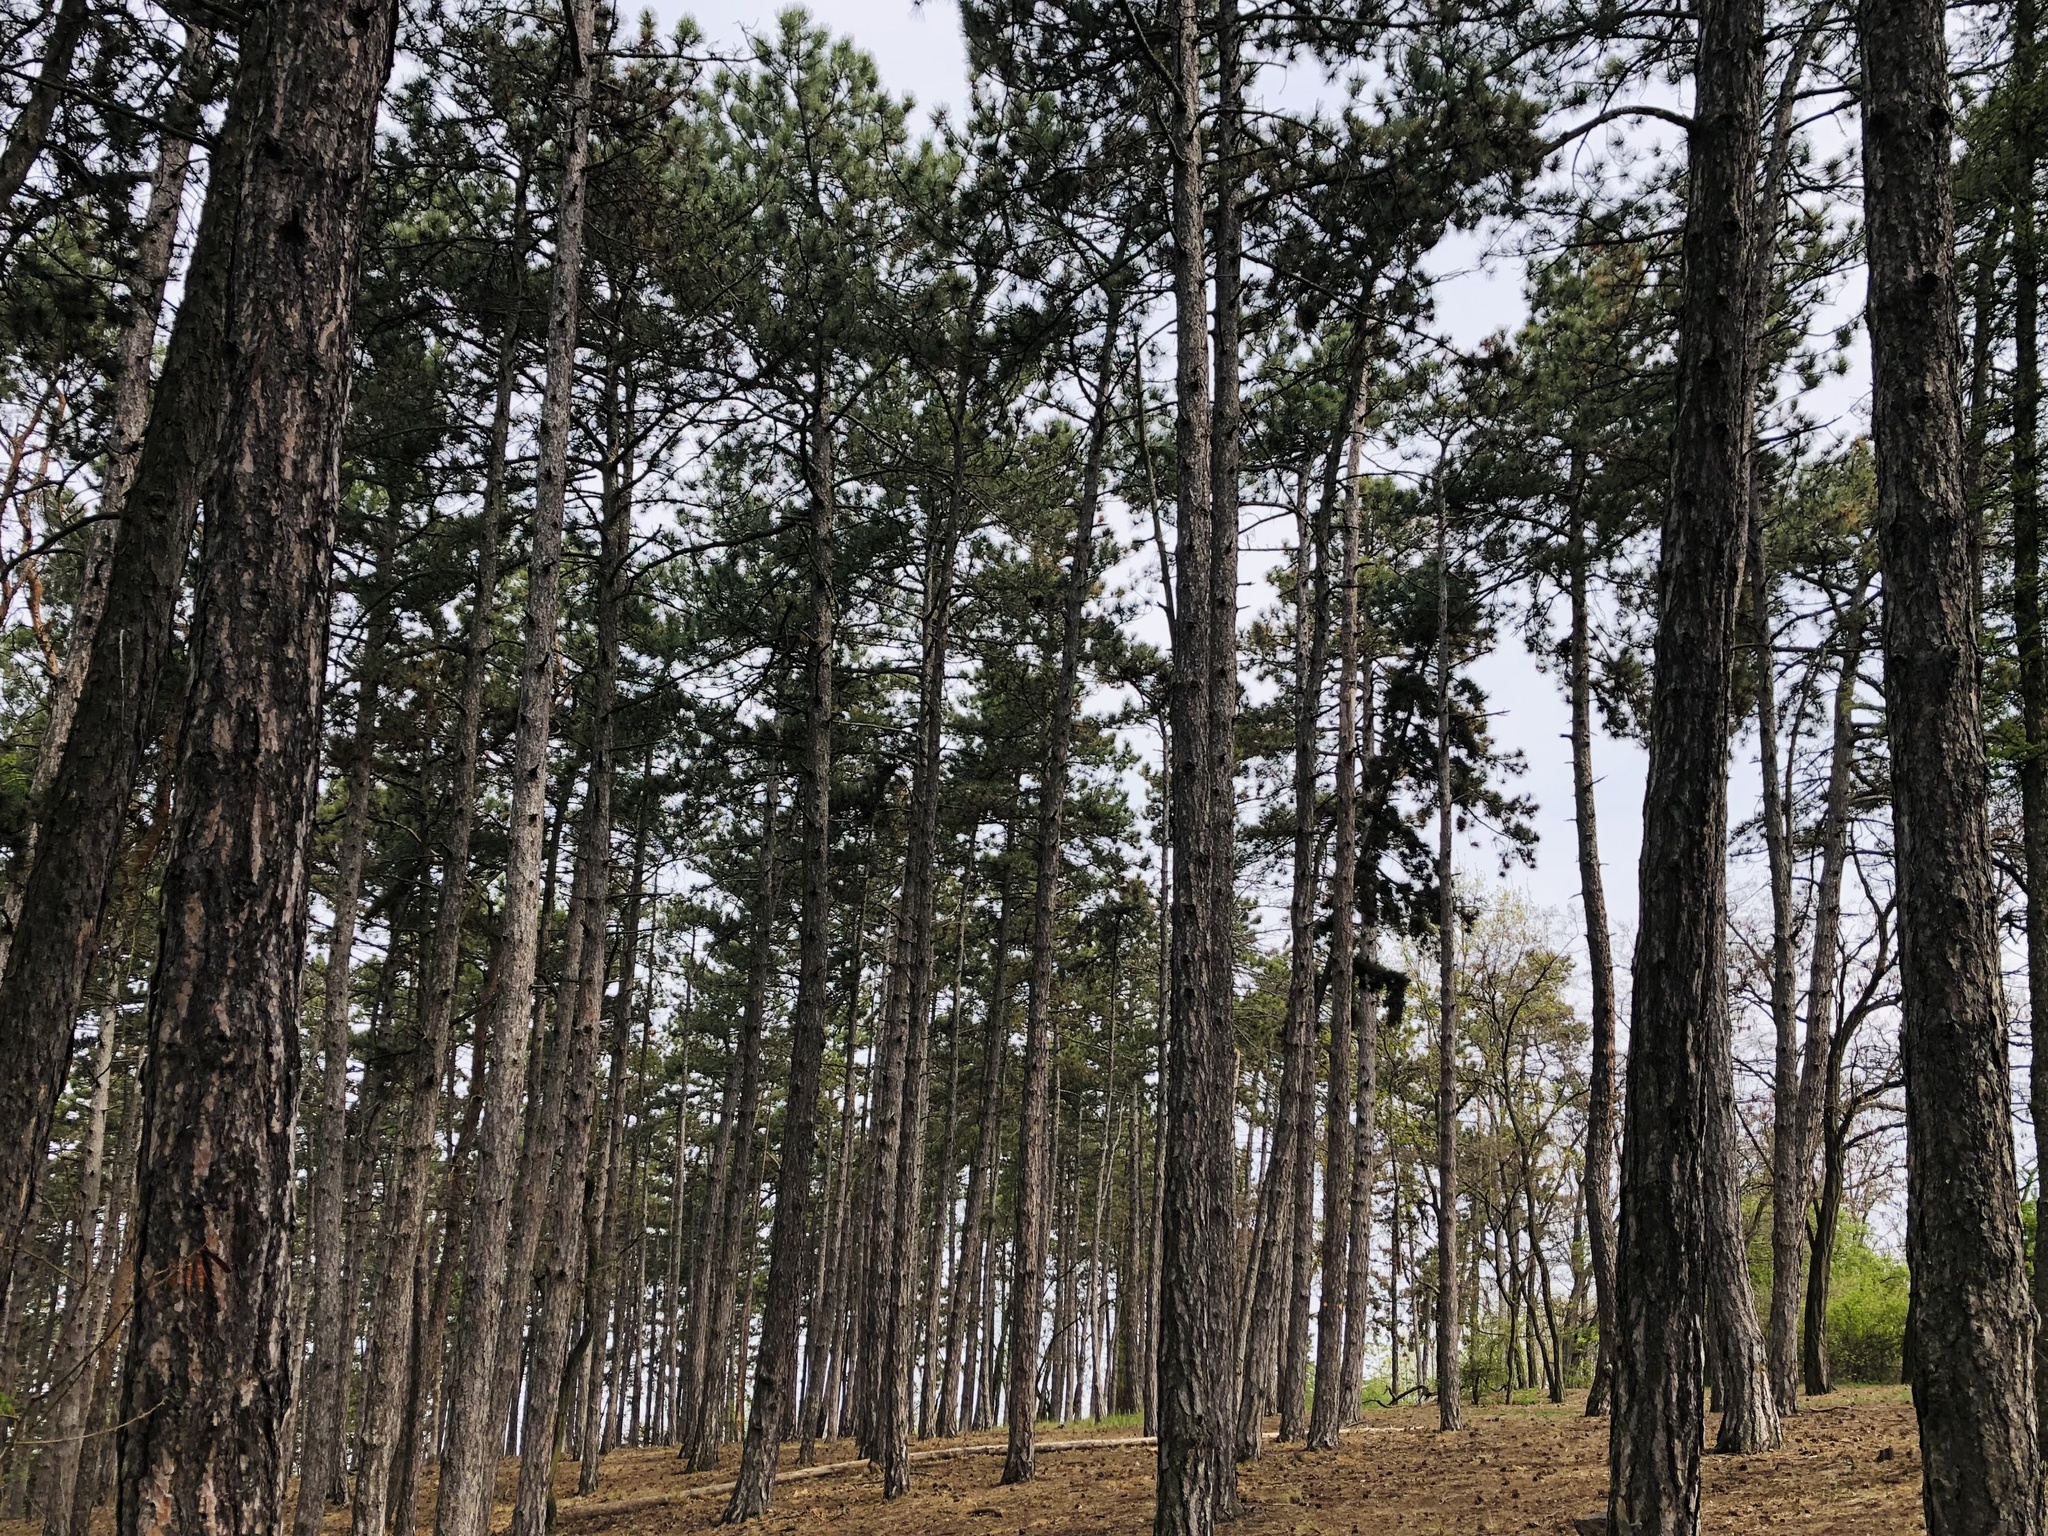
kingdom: Plantae
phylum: Tracheophyta
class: Pinopsida
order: Pinales
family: Pinaceae
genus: Pinus
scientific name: Pinus nigra
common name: Austrian pine
